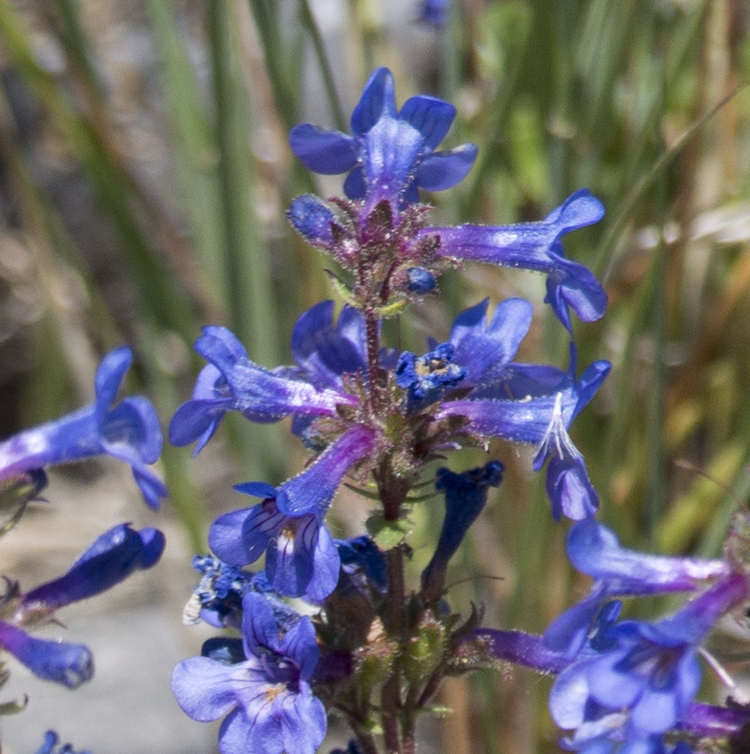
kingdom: Plantae
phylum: Tracheophyta
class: Magnoliopsida
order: Lamiales
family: Plantaginaceae
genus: Penstemon
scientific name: Penstemon humilis
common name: Low penstemon
